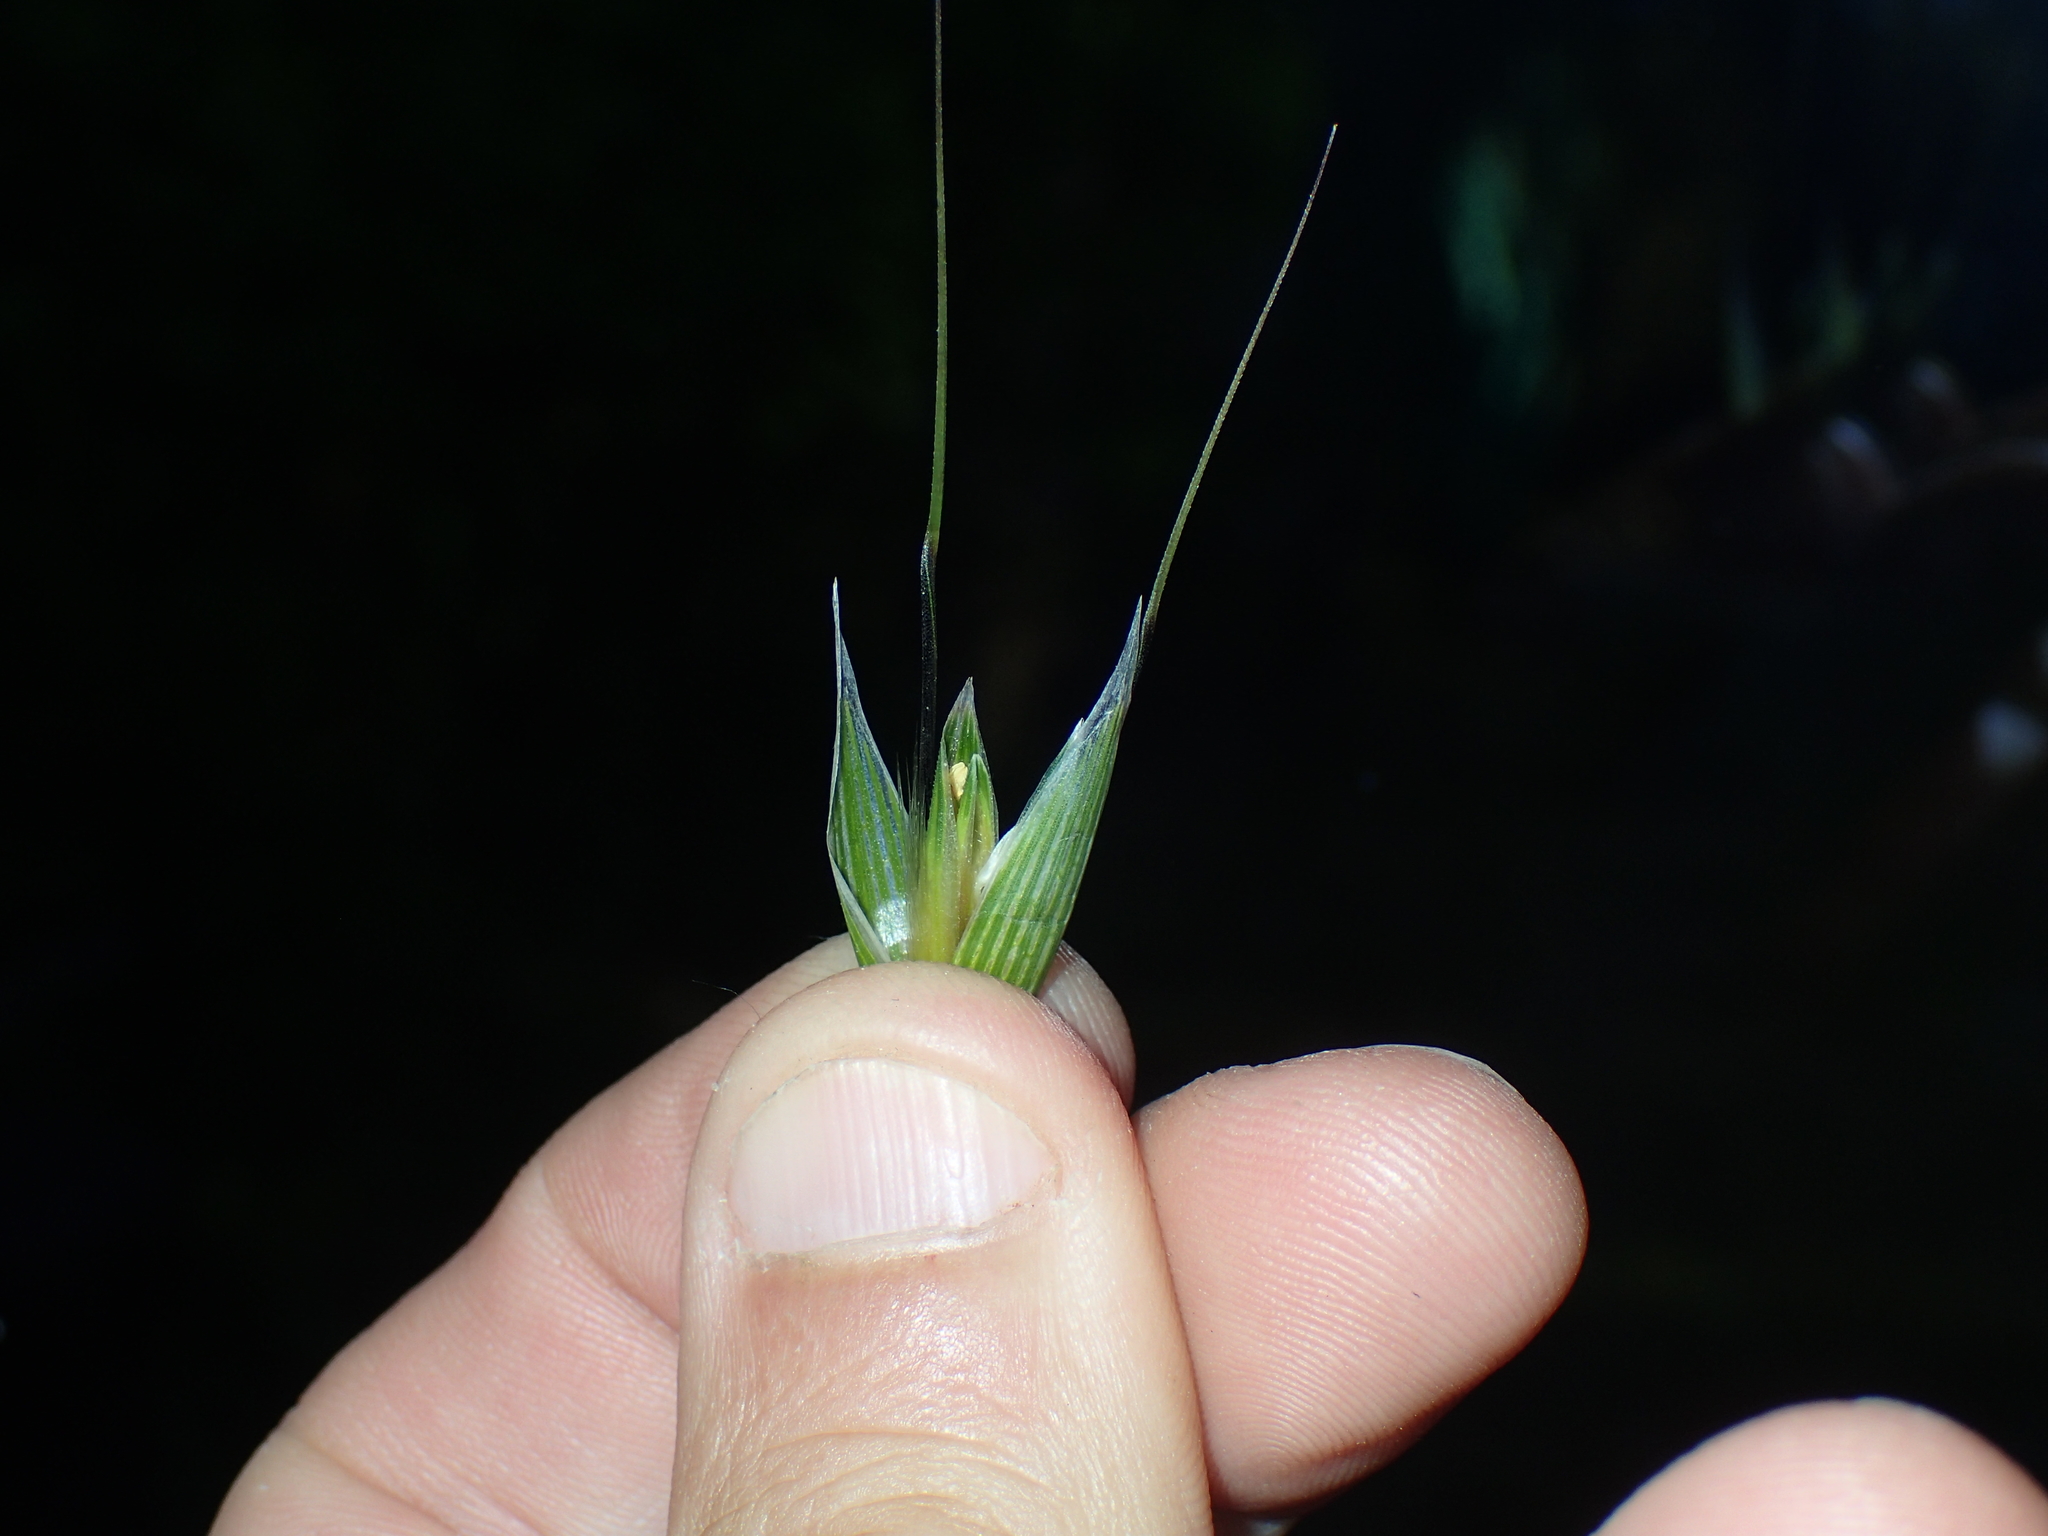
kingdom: Plantae
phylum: Tracheophyta
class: Liliopsida
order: Poales
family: Poaceae
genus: Avena
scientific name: Avena sterilis
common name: Animated oat
